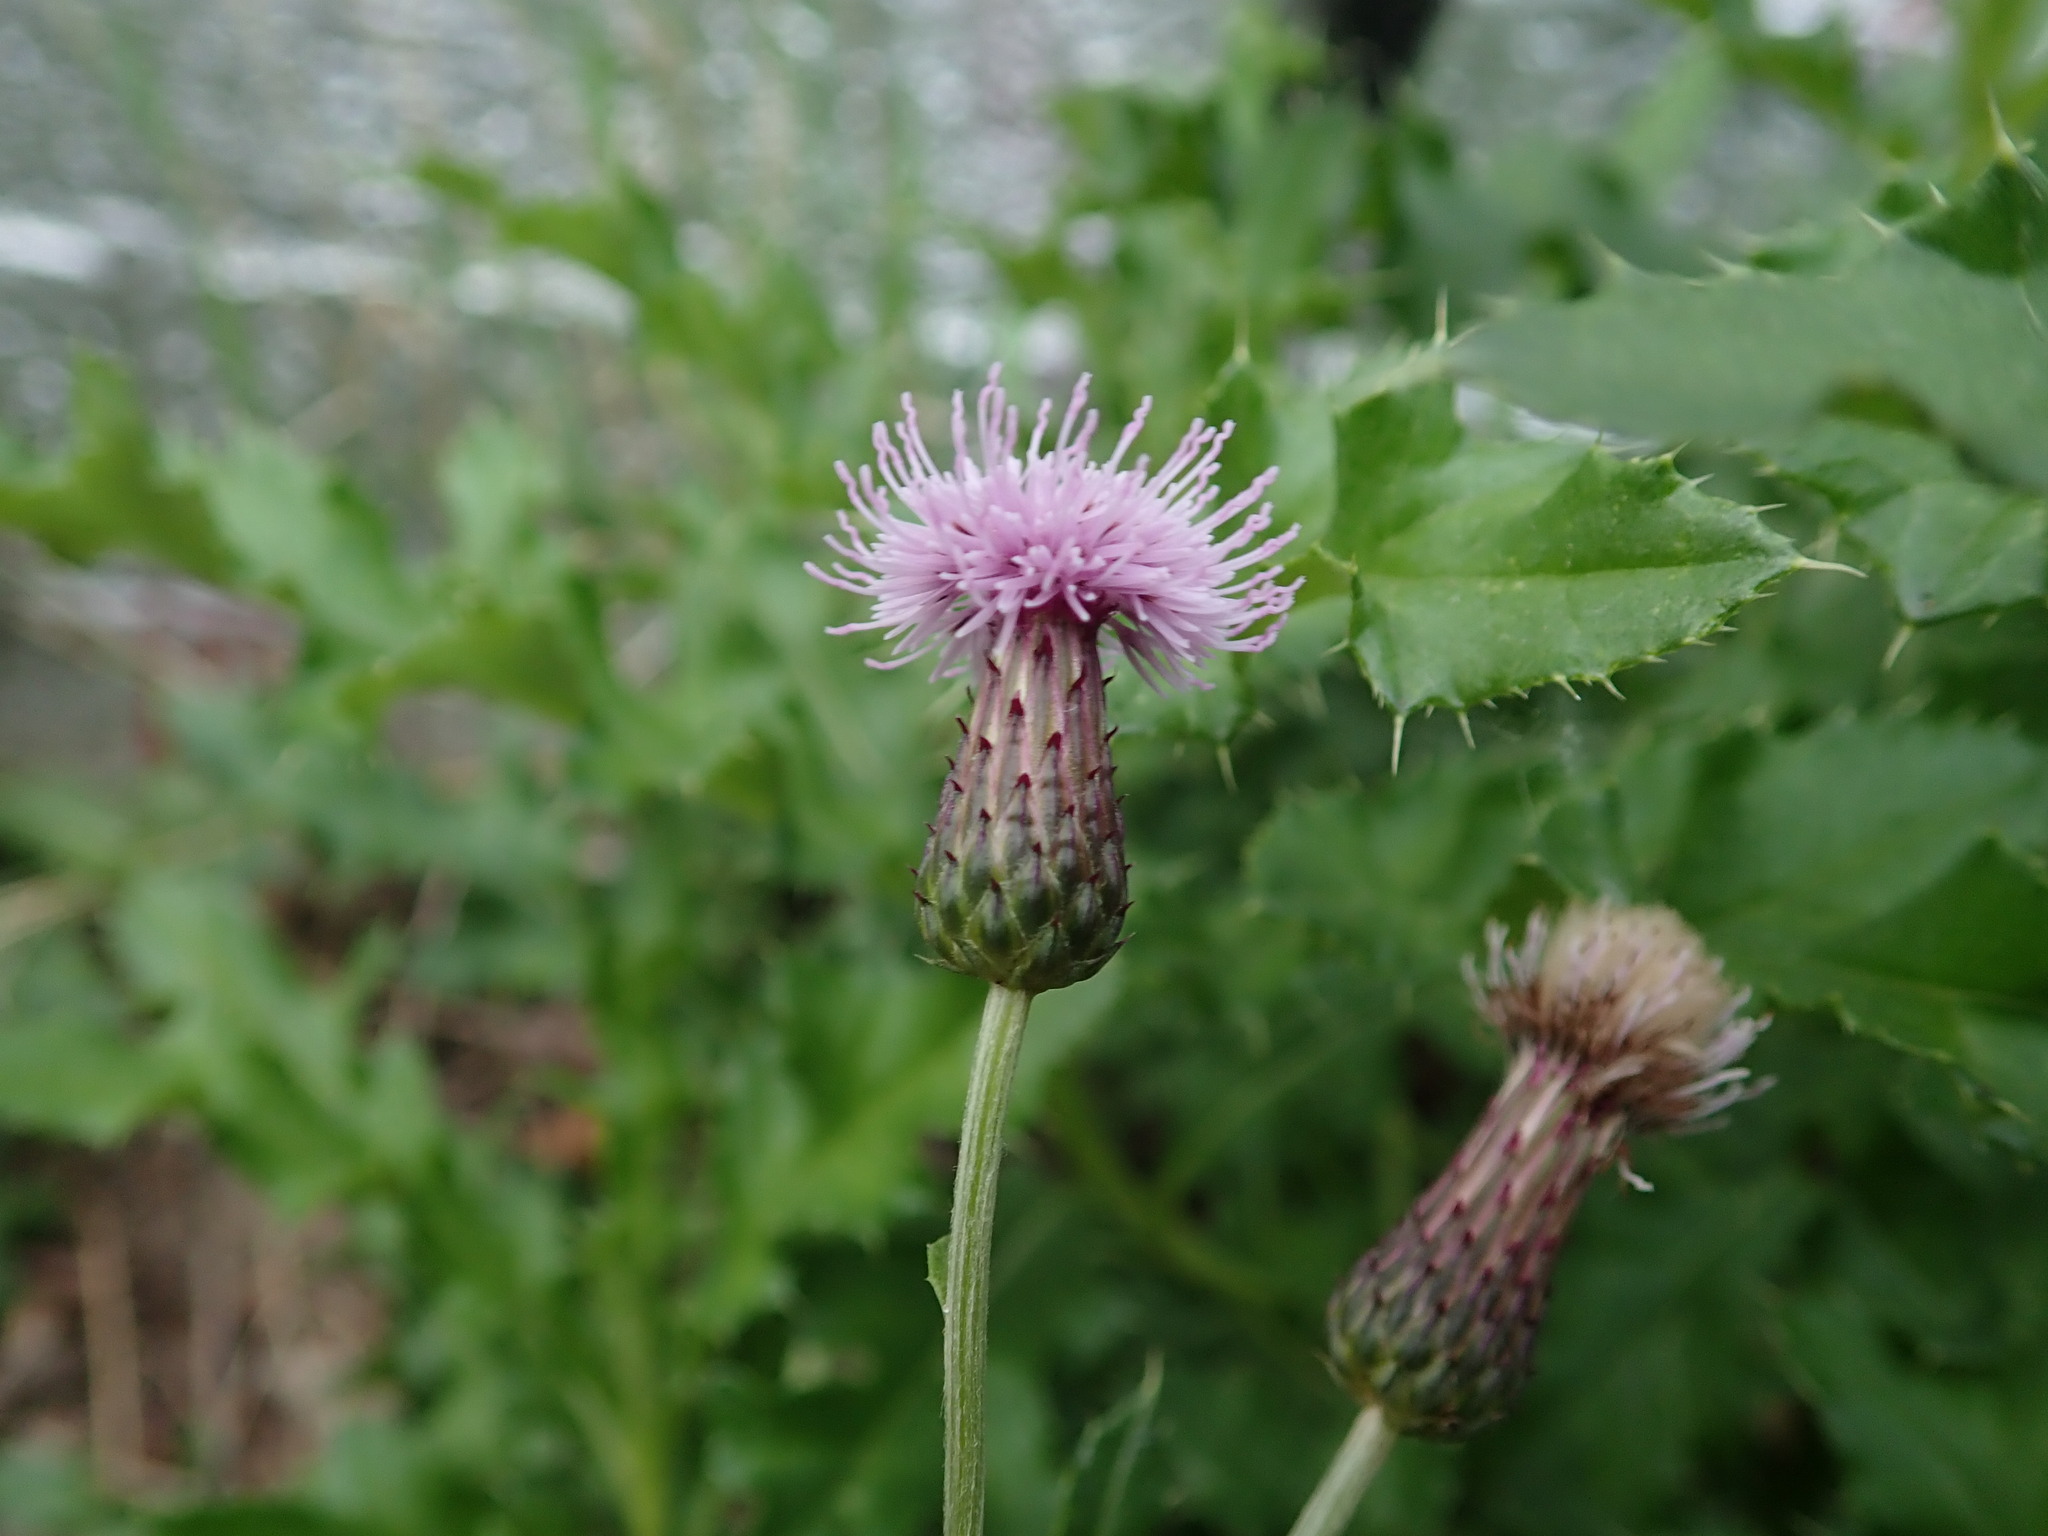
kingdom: Plantae
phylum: Tracheophyta
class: Magnoliopsida
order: Asterales
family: Asteraceae
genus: Cirsium
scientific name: Cirsium arvense
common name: Creeping thistle
